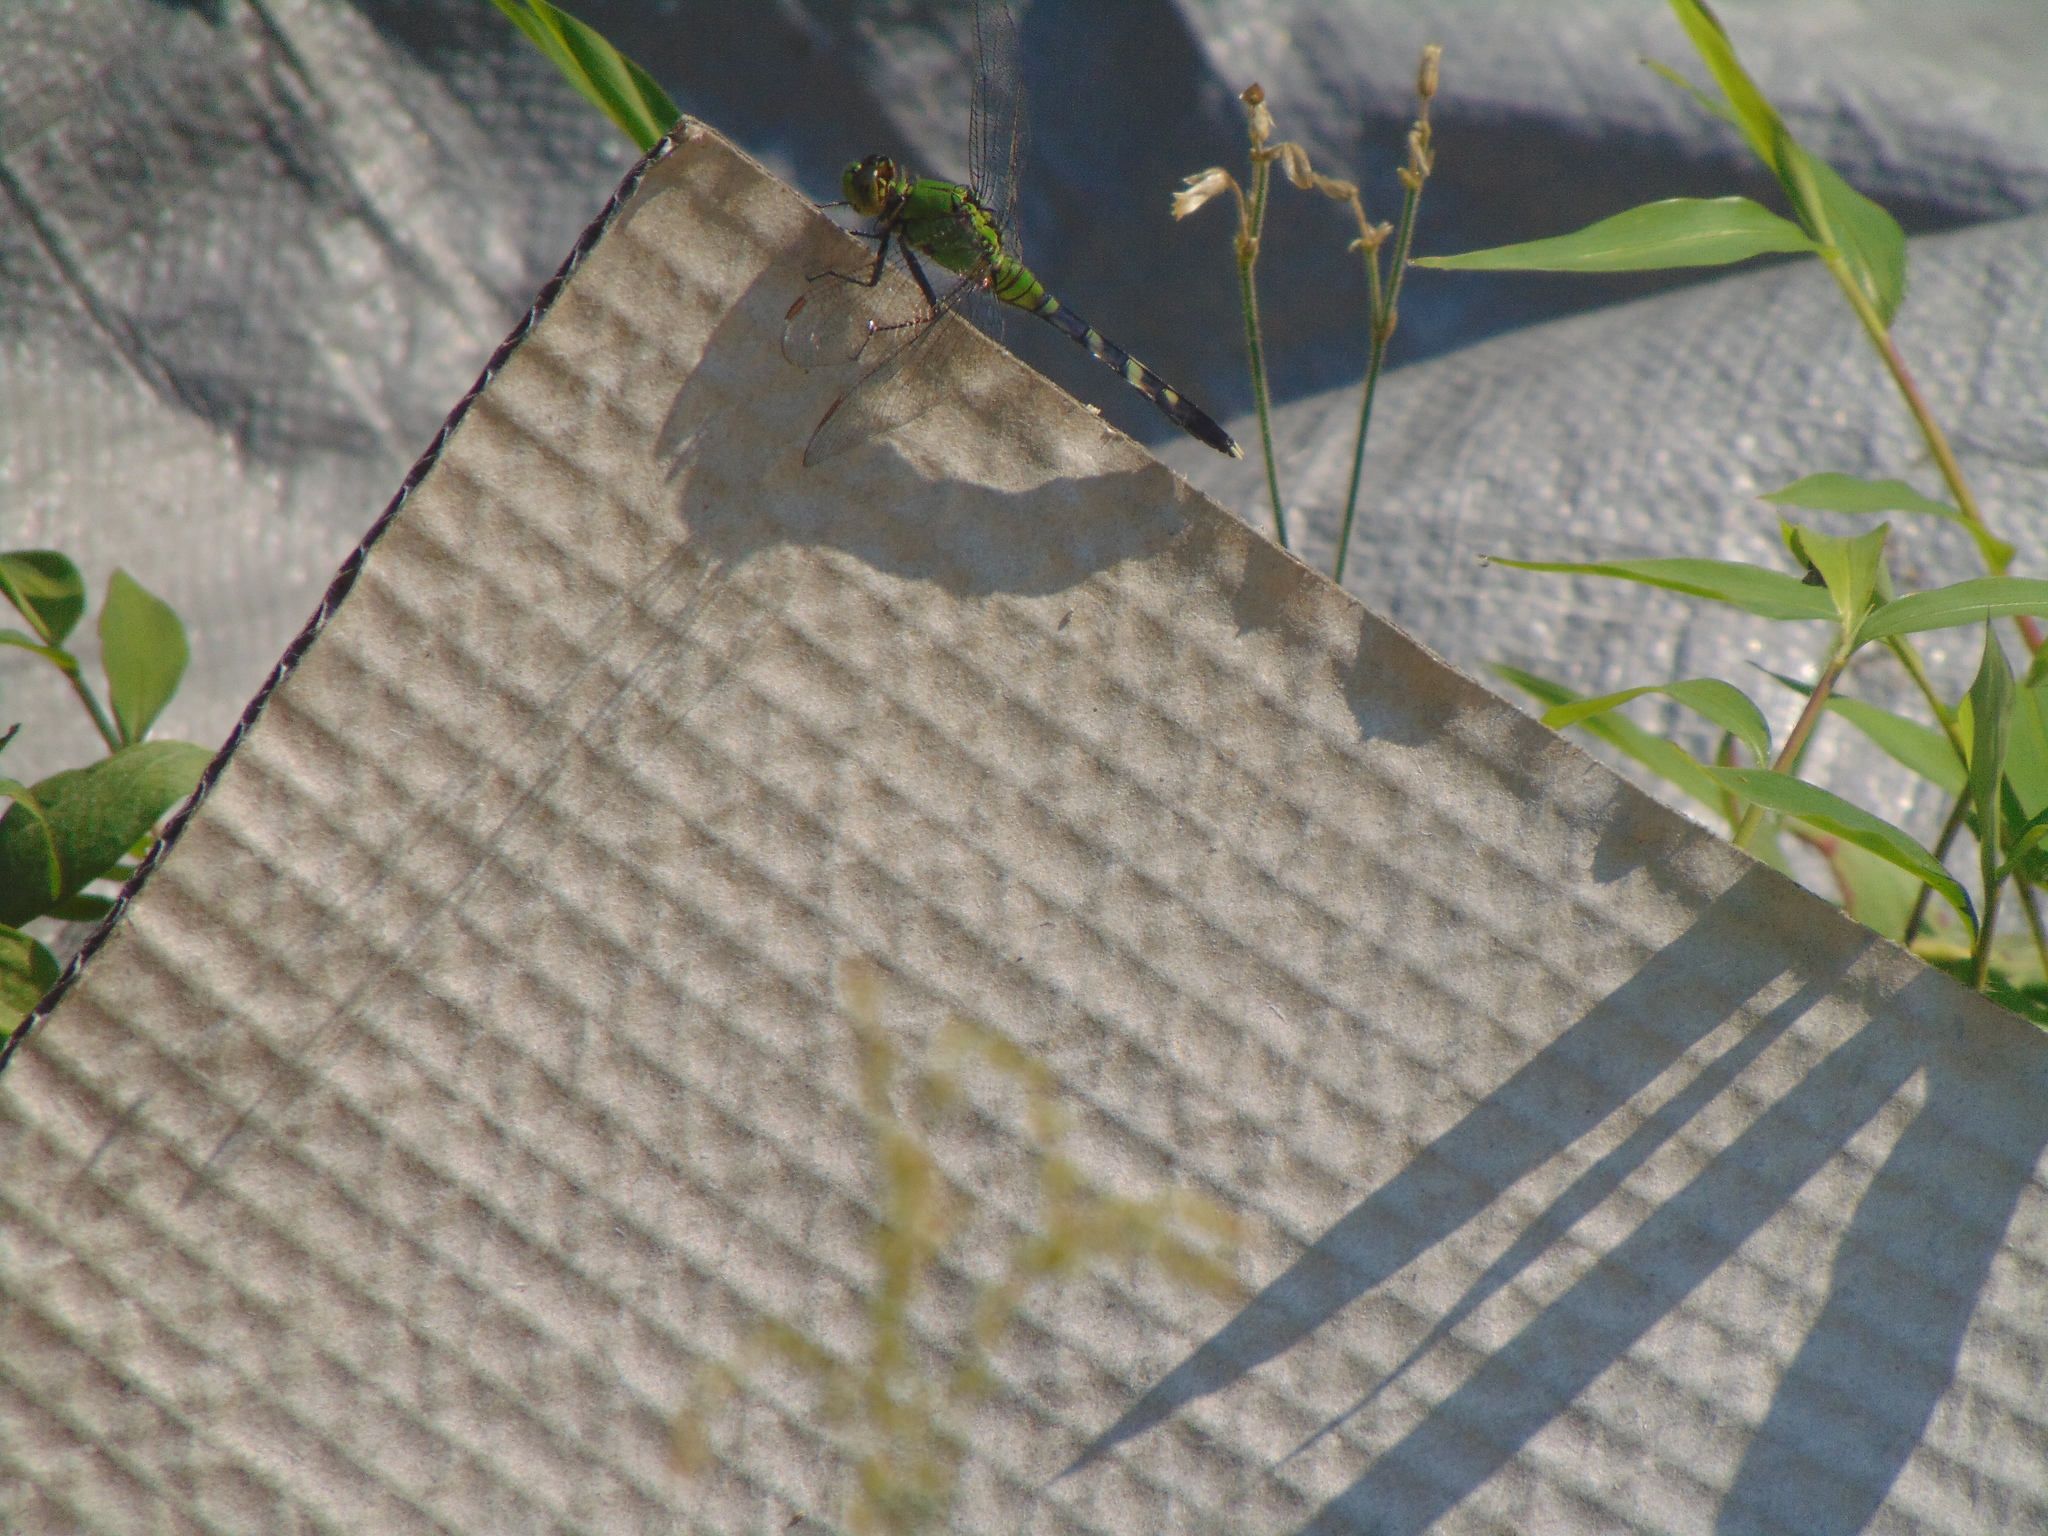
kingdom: Animalia
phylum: Arthropoda
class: Insecta
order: Odonata
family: Libellulidae
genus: Erythemis
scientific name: Erythemis simplicicollis
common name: Eastern pondhawk
